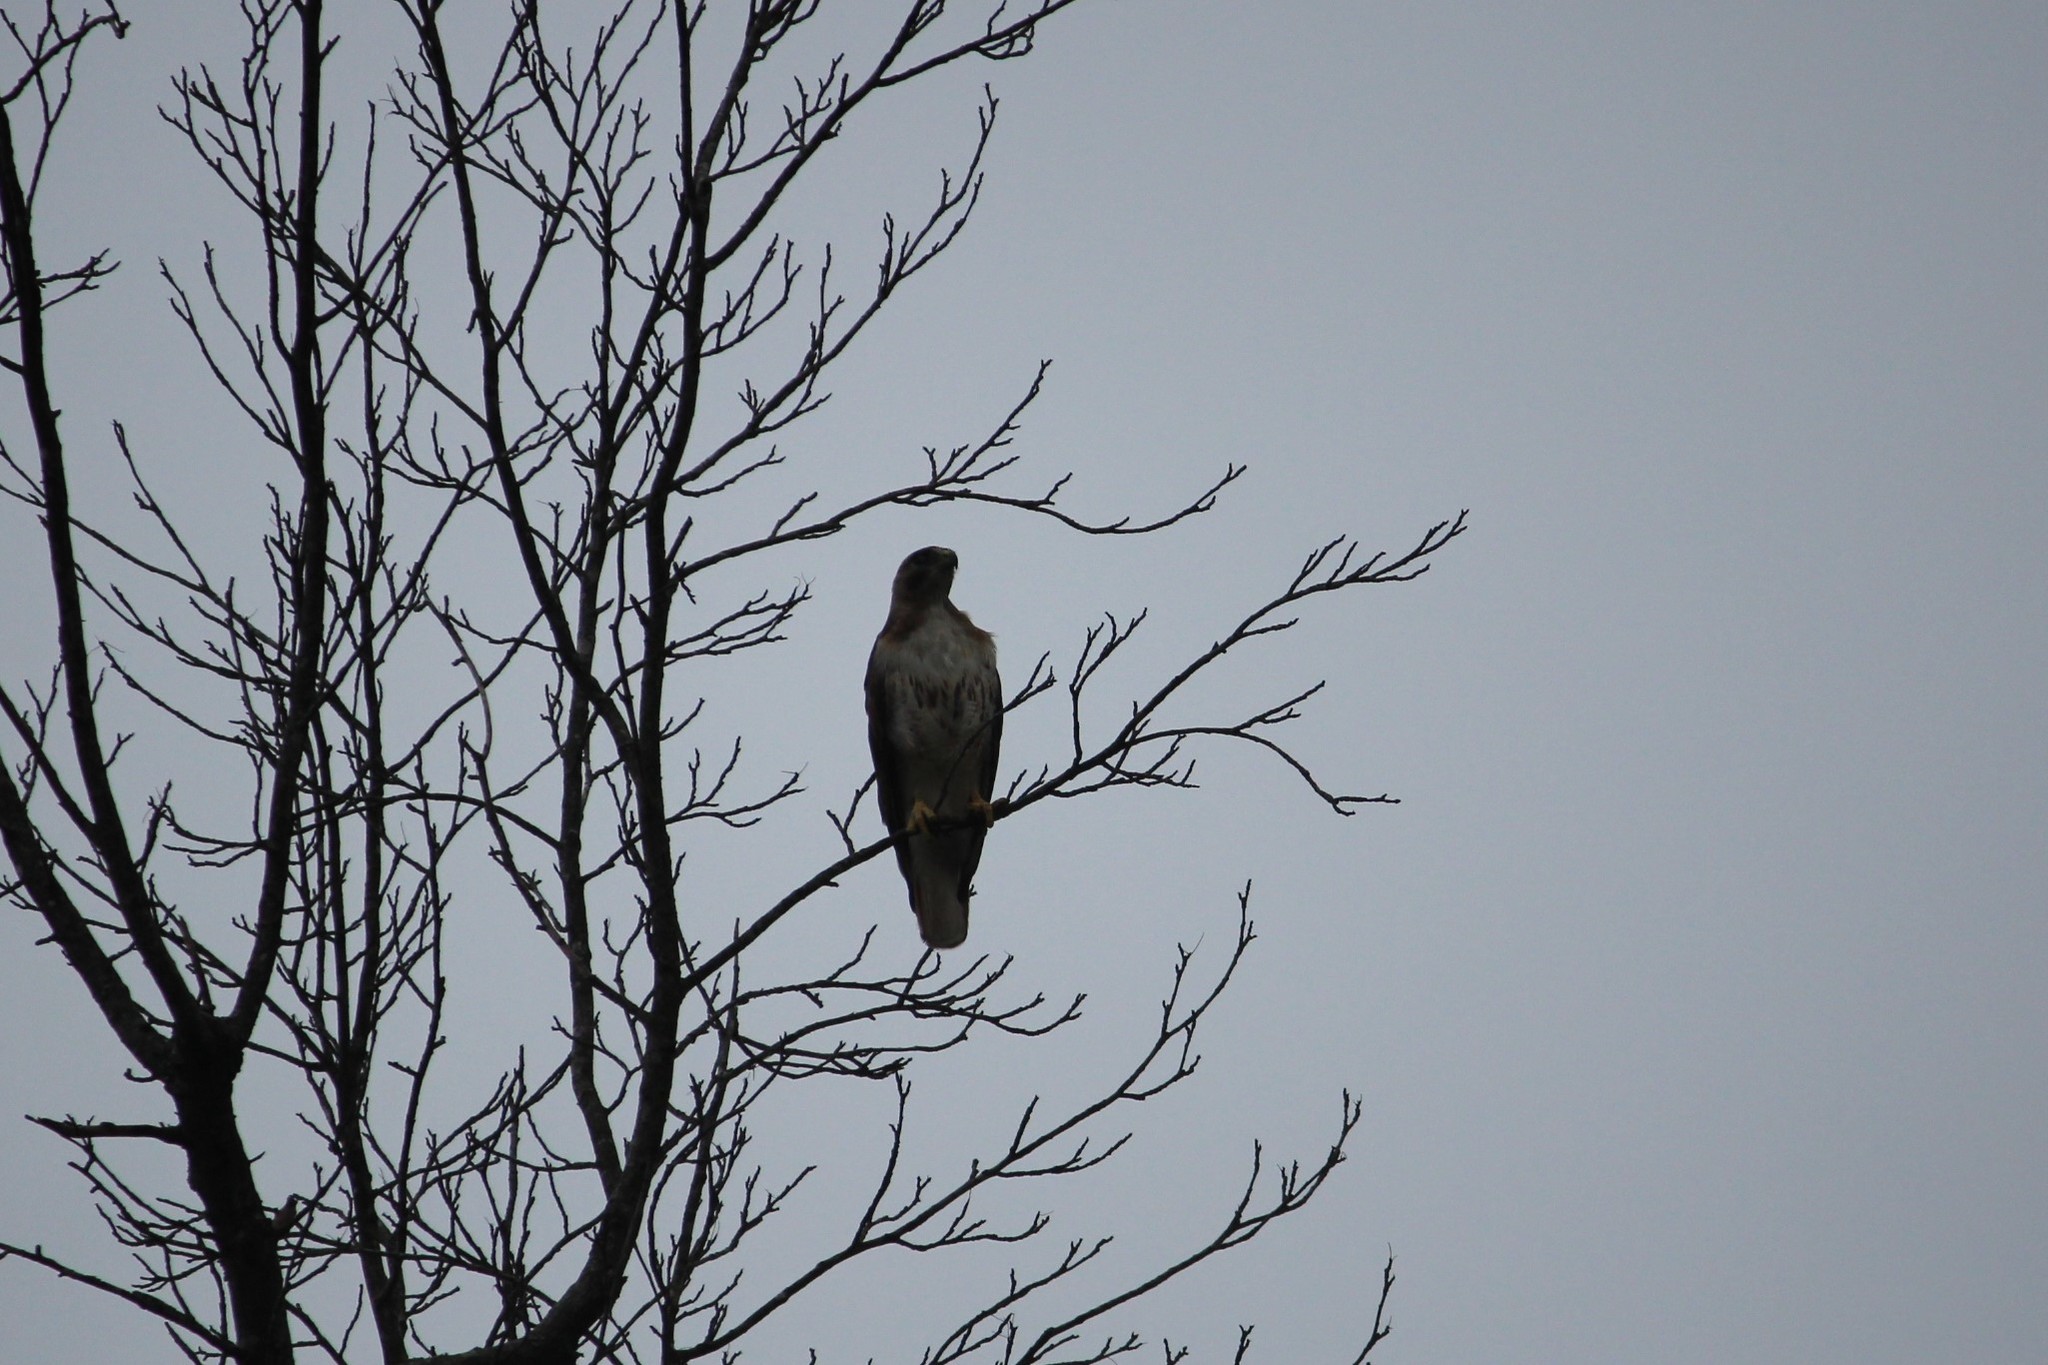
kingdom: Animalia
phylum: Chordata
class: Aves
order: Accipitriformes
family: Accipitridae
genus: Buteo
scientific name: Buteo jamaicensis
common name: Red-tailed hawk
